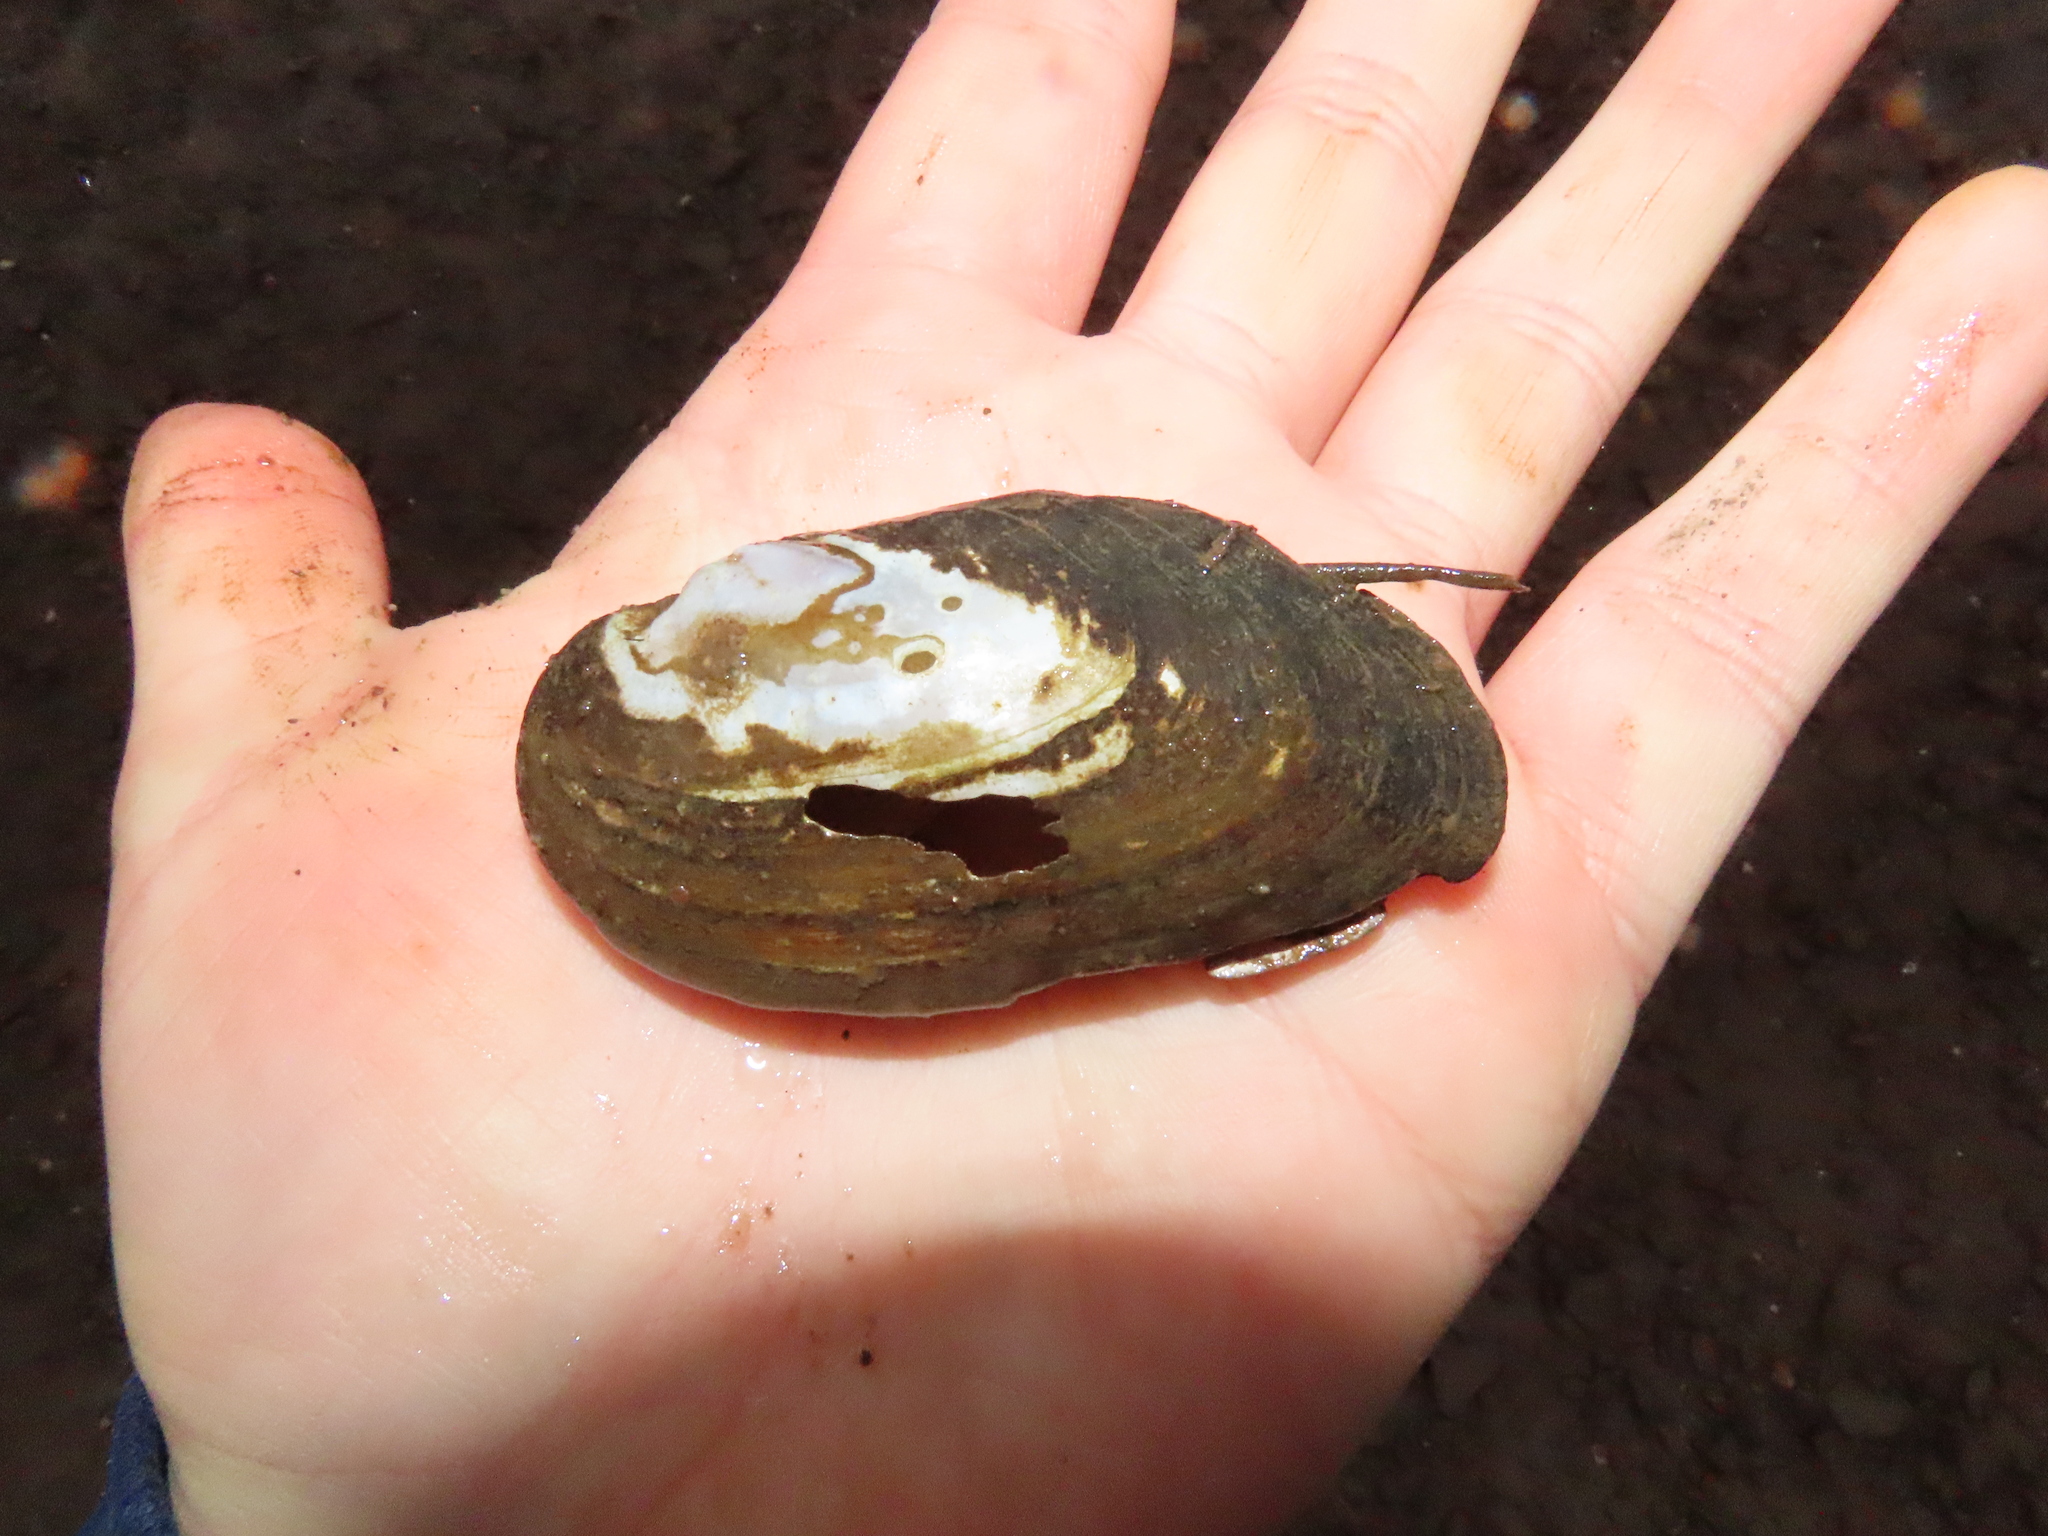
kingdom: Animalia
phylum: Mollusca
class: Bivalvia
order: Unionida
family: Unionidae
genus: Elliptio
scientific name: Elliptio complanata
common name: Eastern elliptio
